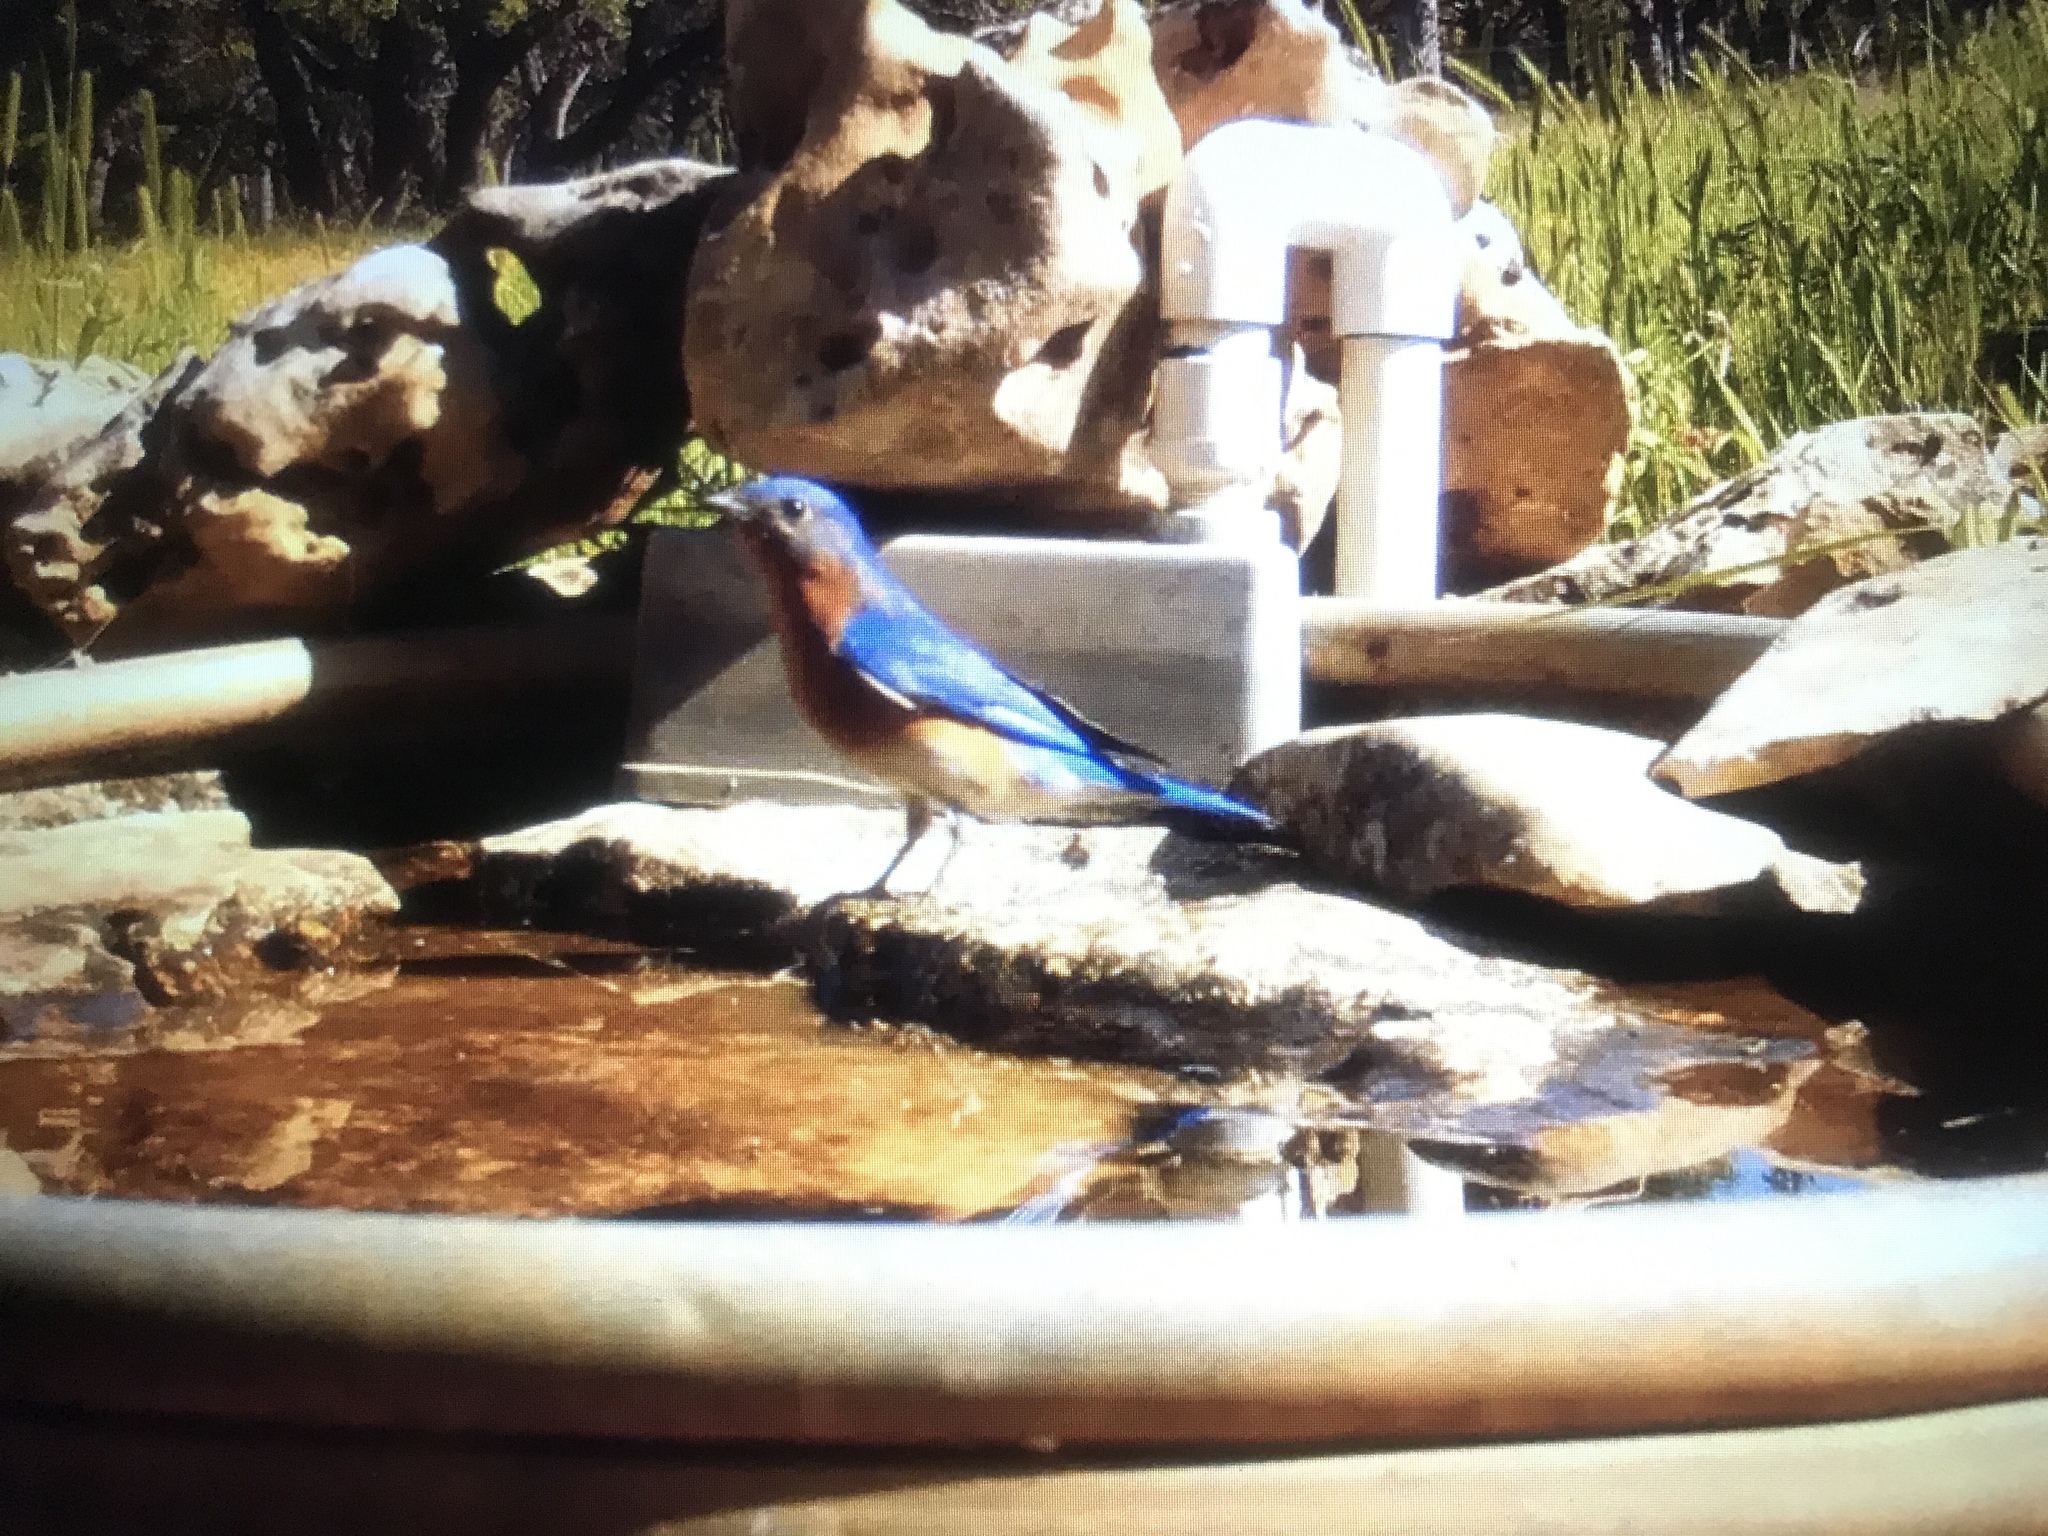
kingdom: Animalia
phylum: Chordata
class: Aves
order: Passeriformes
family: Turdidae
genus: Sialia
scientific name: Sialia sialis
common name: Eastern bluebird
